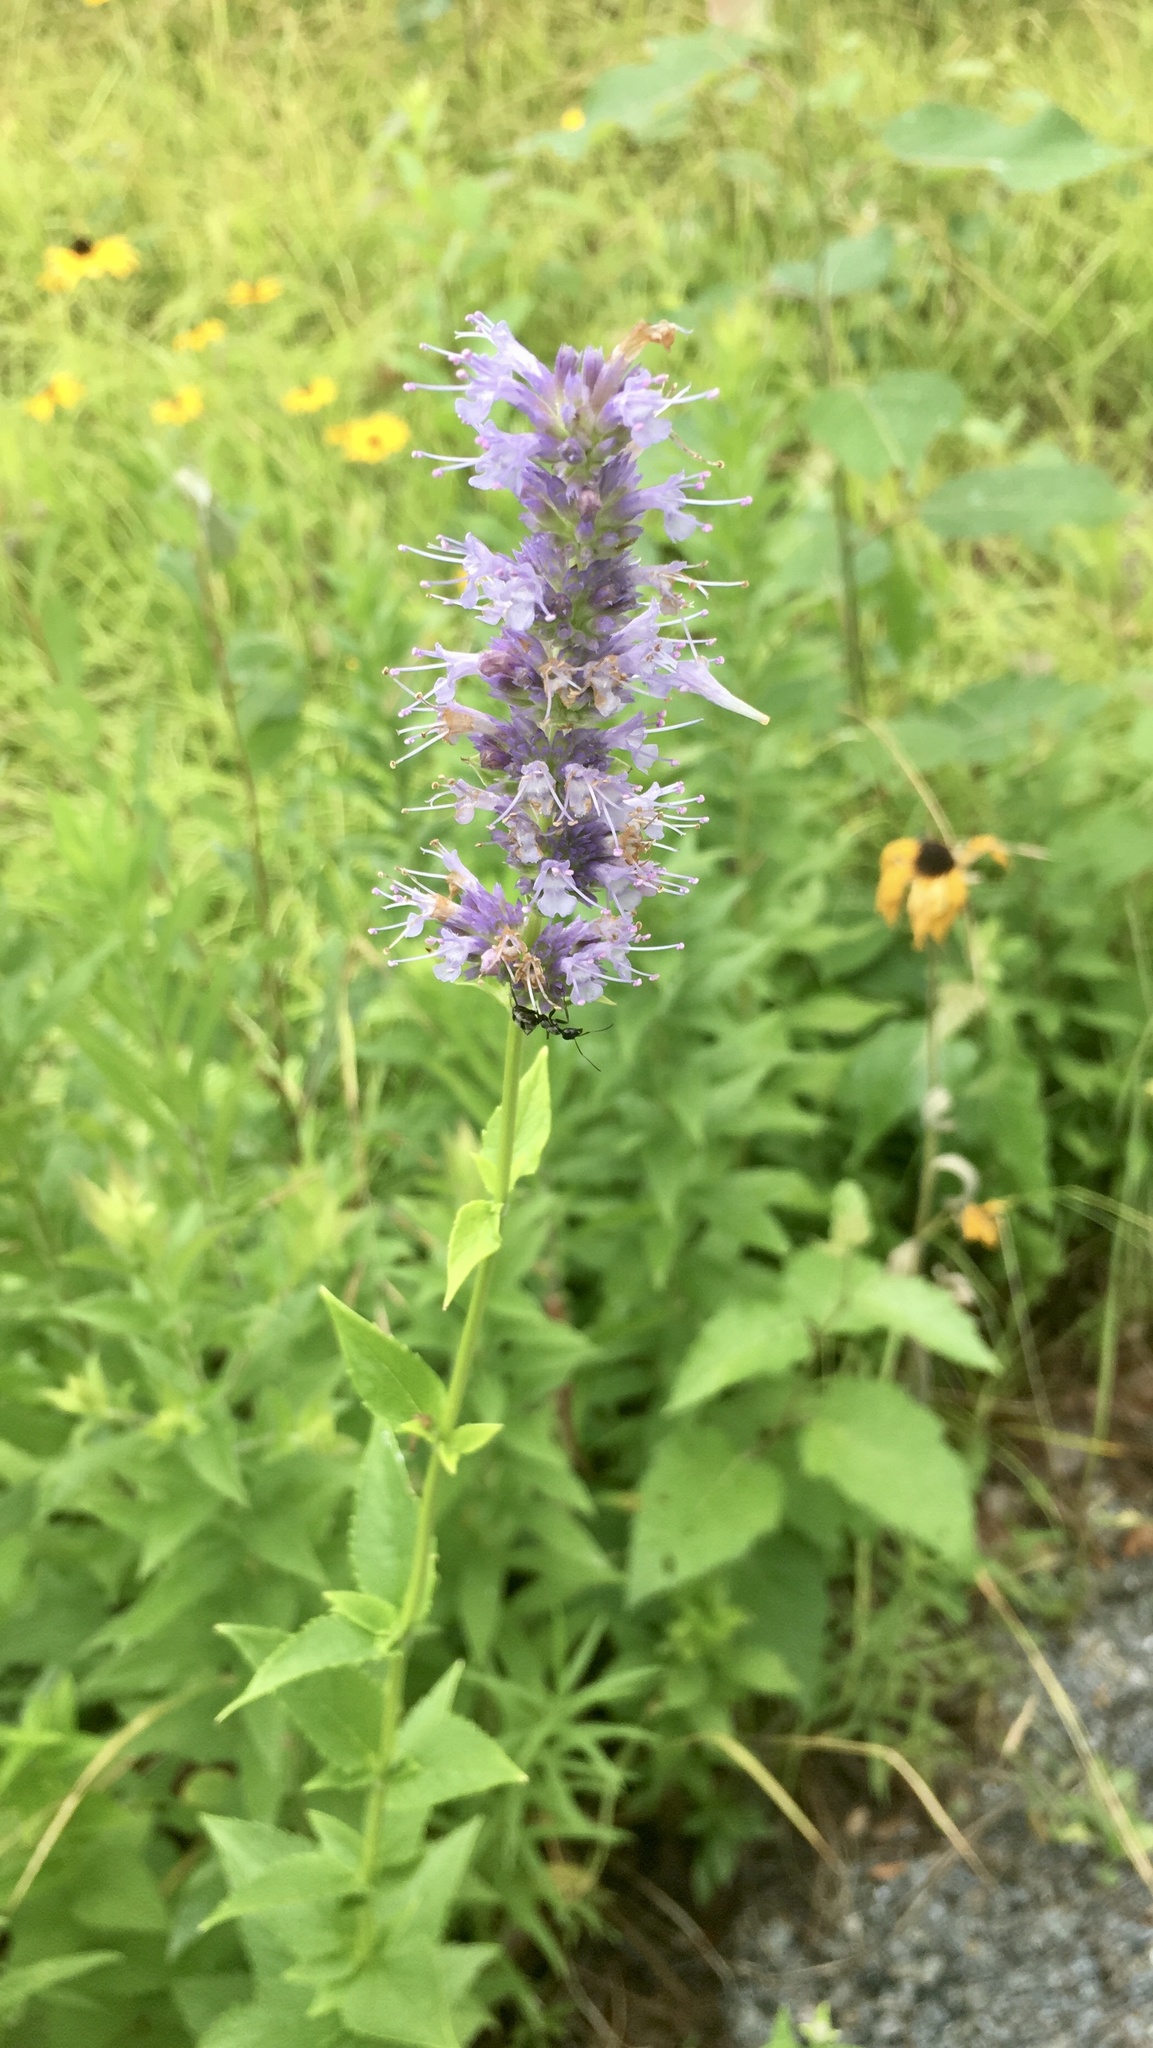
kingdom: Plantae
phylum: Tracheophyta
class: Magnoliopsida
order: Lamiales
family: Lamiaceae
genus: Agastache
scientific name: Agastache foeniculum
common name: Anise hyssop
